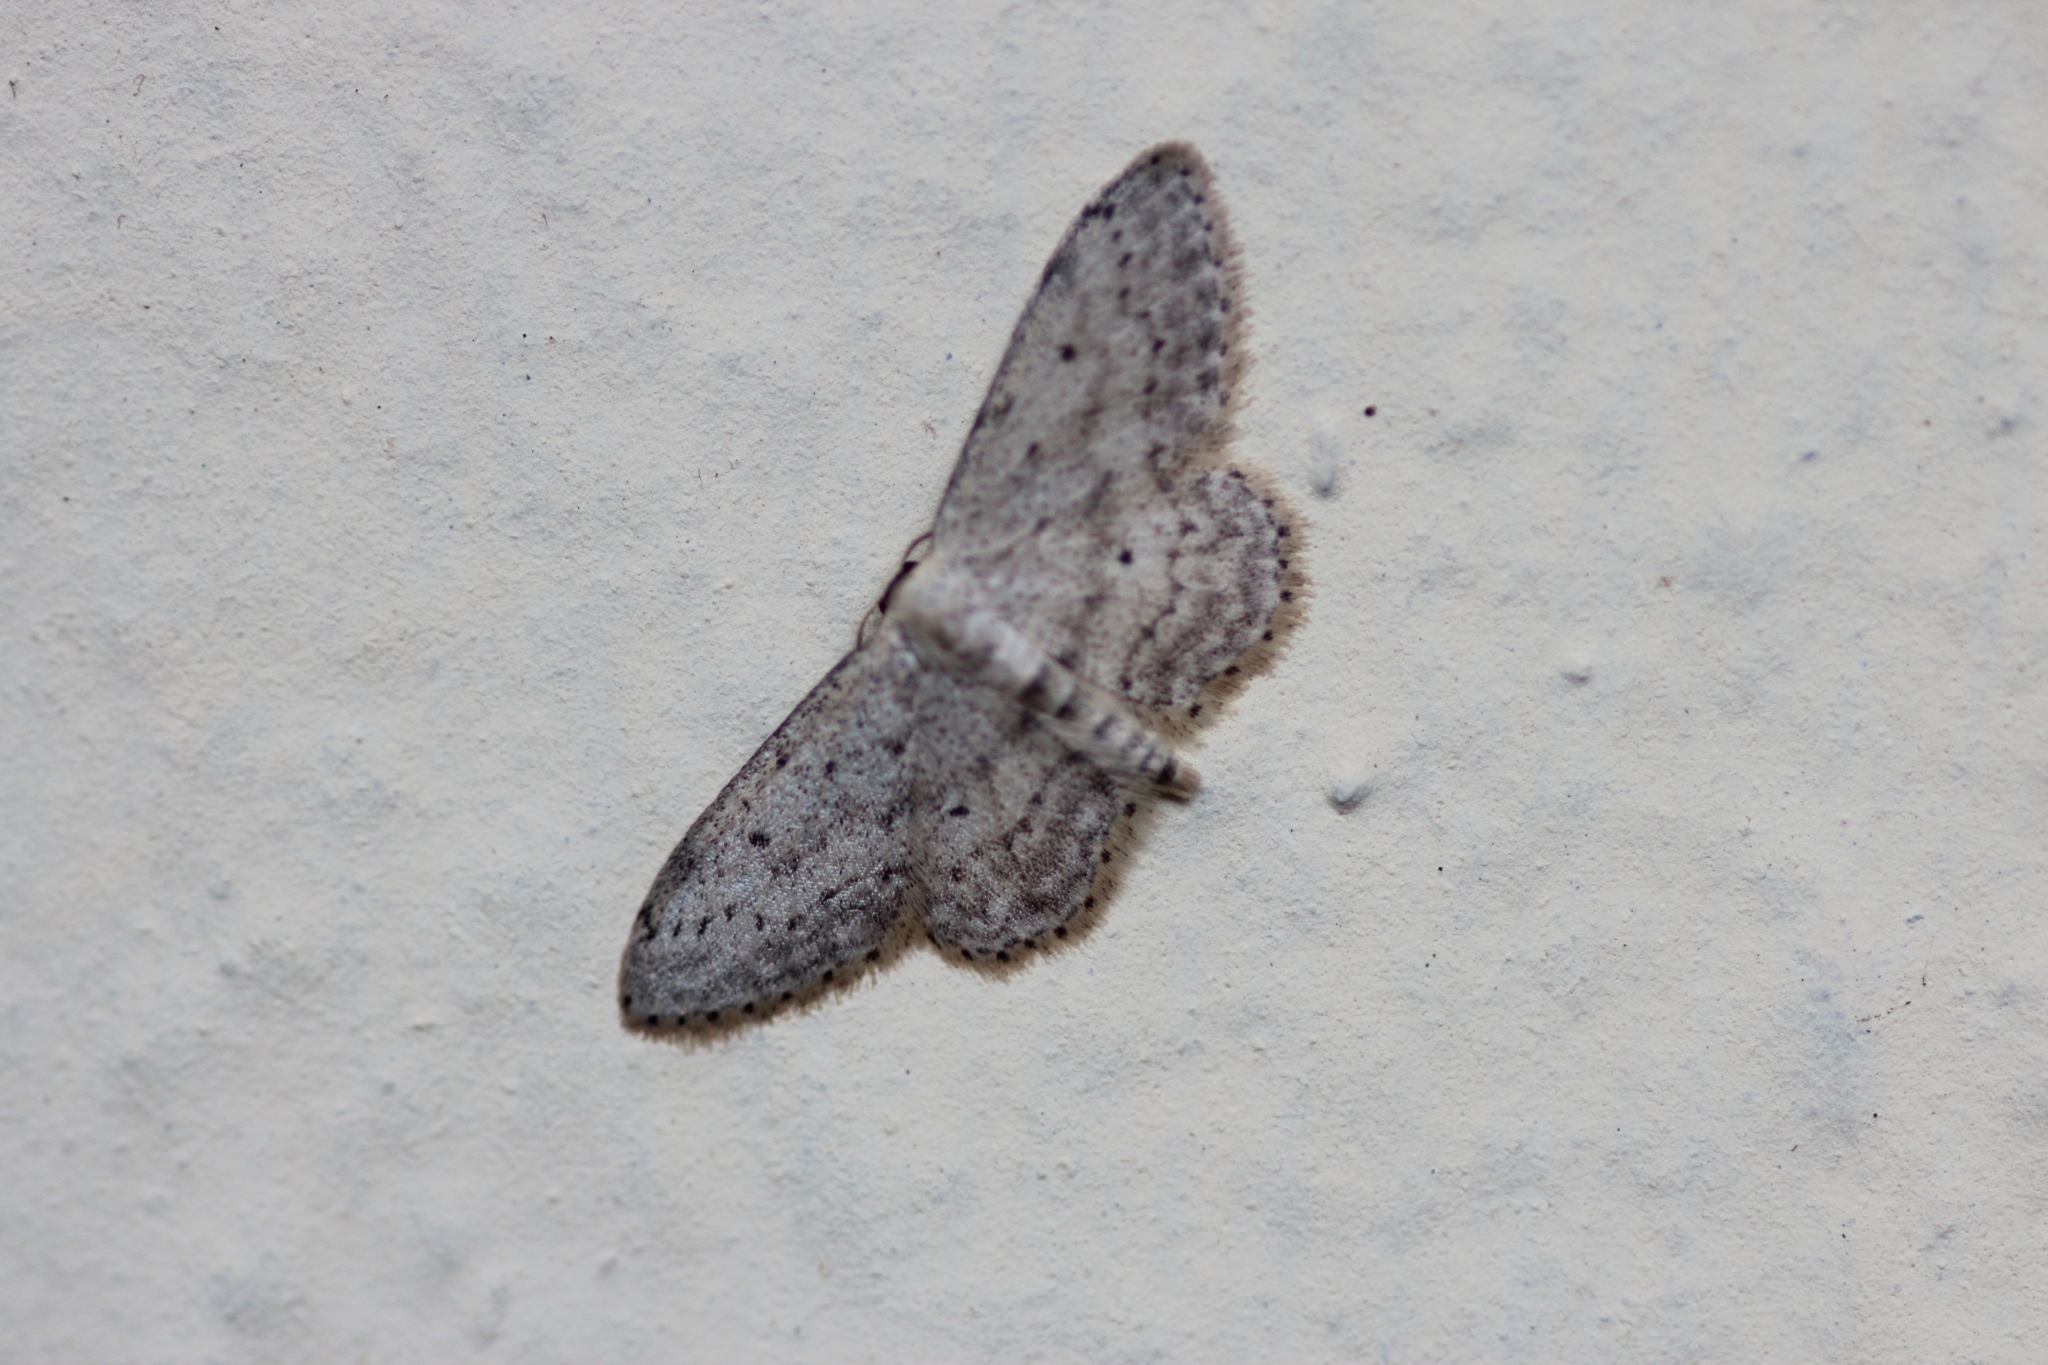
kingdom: Animalia
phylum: Arthropoda
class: Insecta
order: Lepidoptera
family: Geometridae
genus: Idaea
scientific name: Idaea seriata
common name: Small dusty wave
